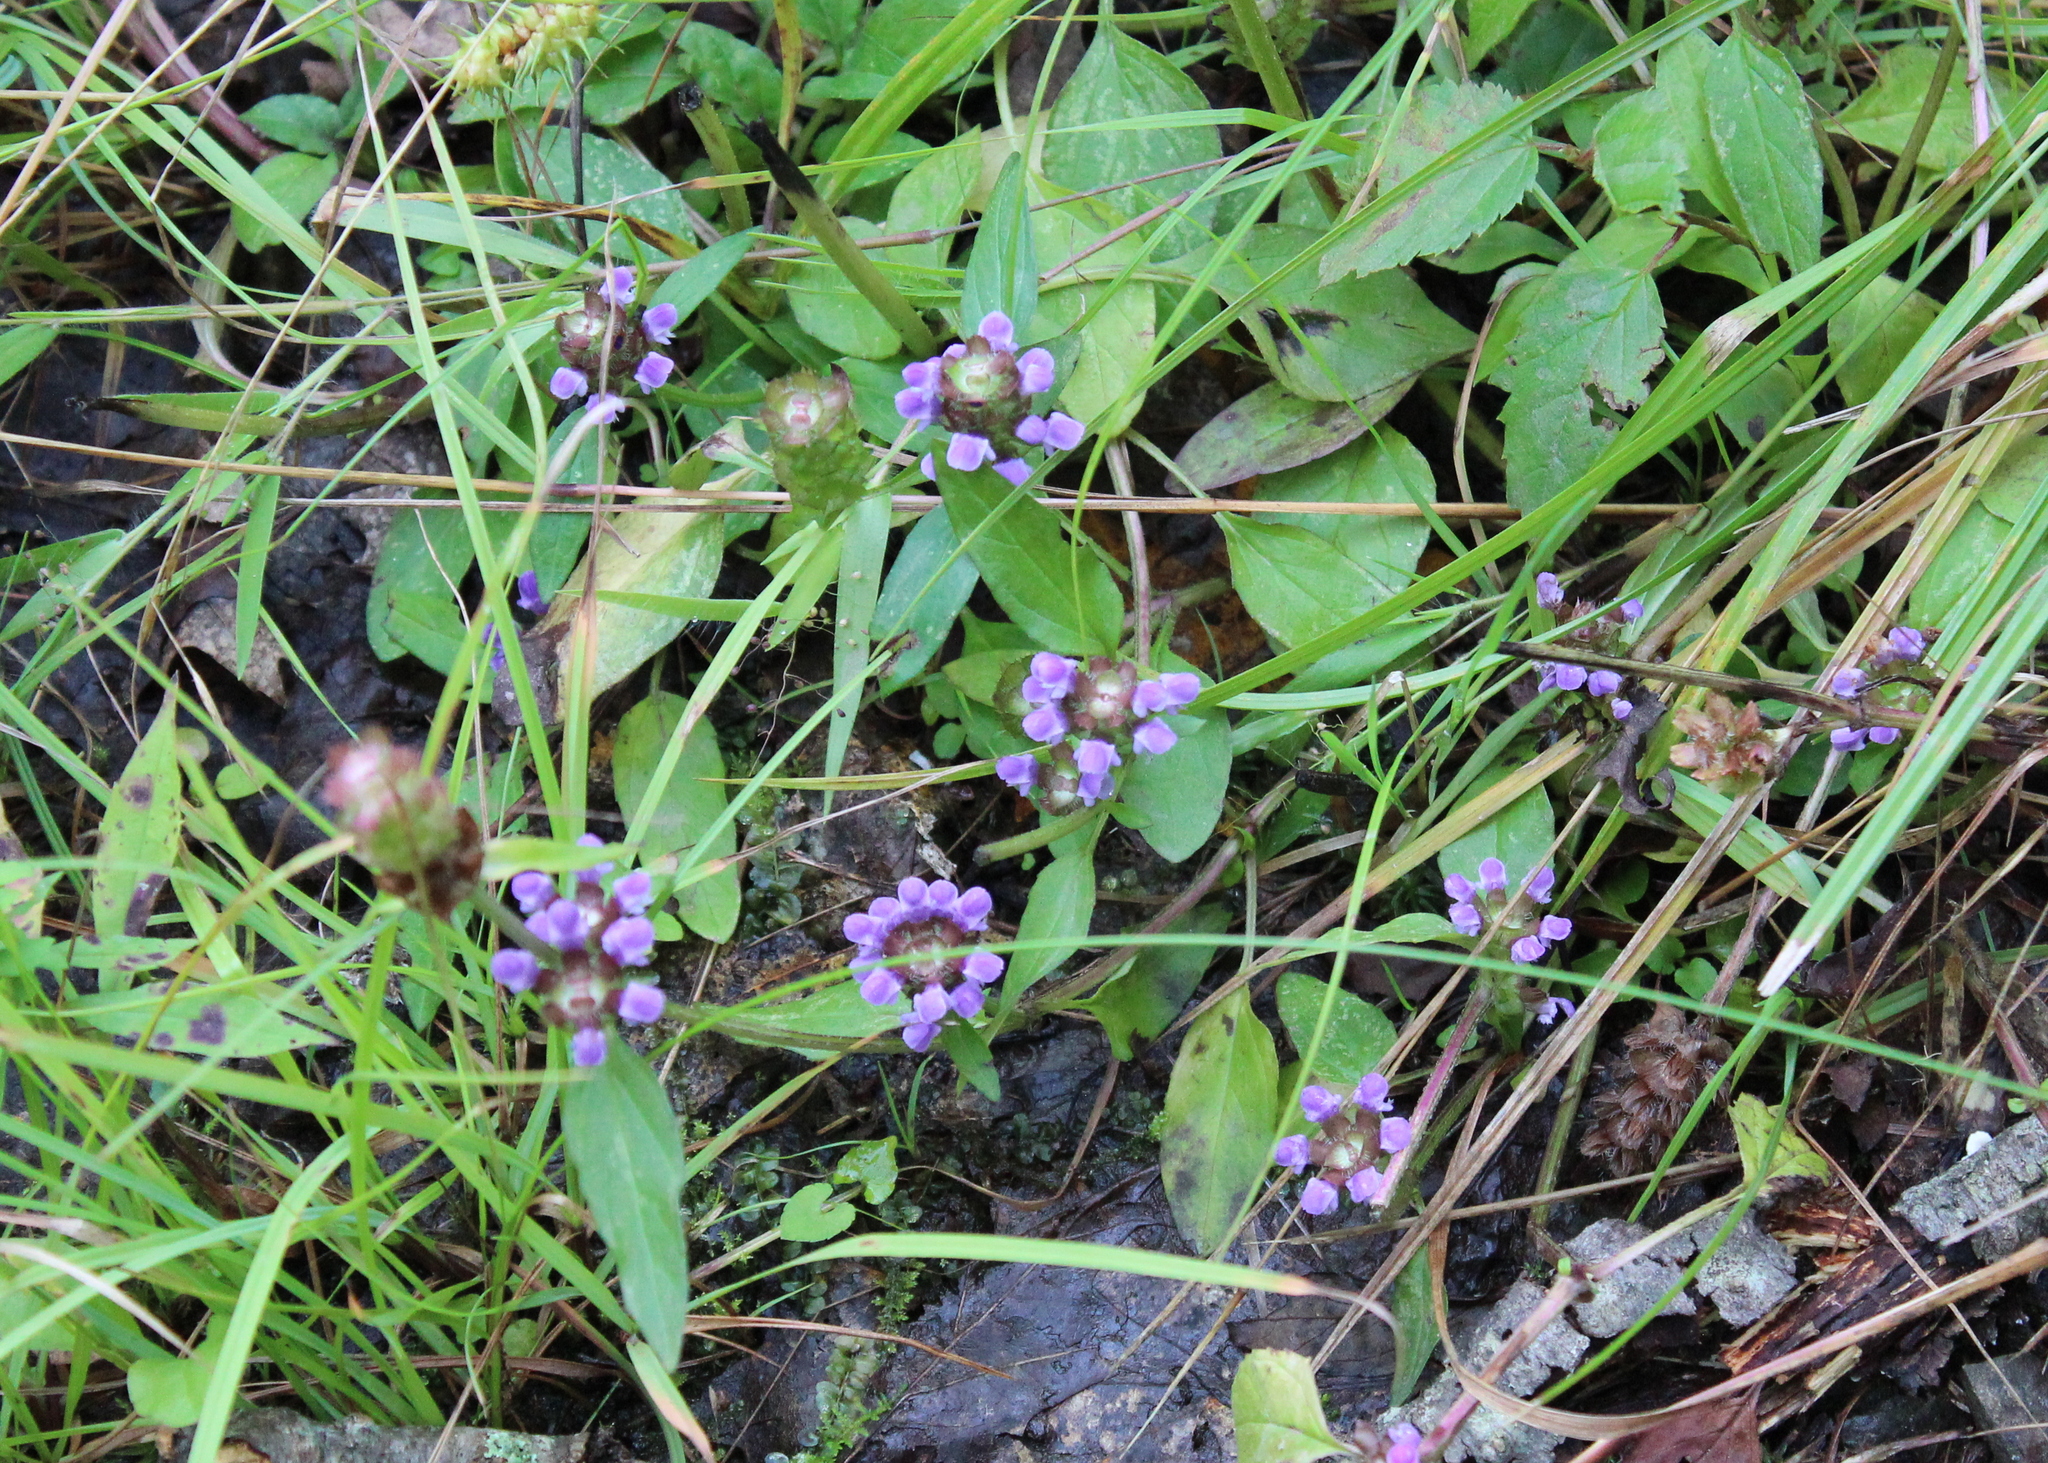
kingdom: Plantae
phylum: Tracheophyta
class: Magnoliopsida
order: Lamiales
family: Lamiaceae
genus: Prunella
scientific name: Prunella vulgaris
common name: Heal-all
